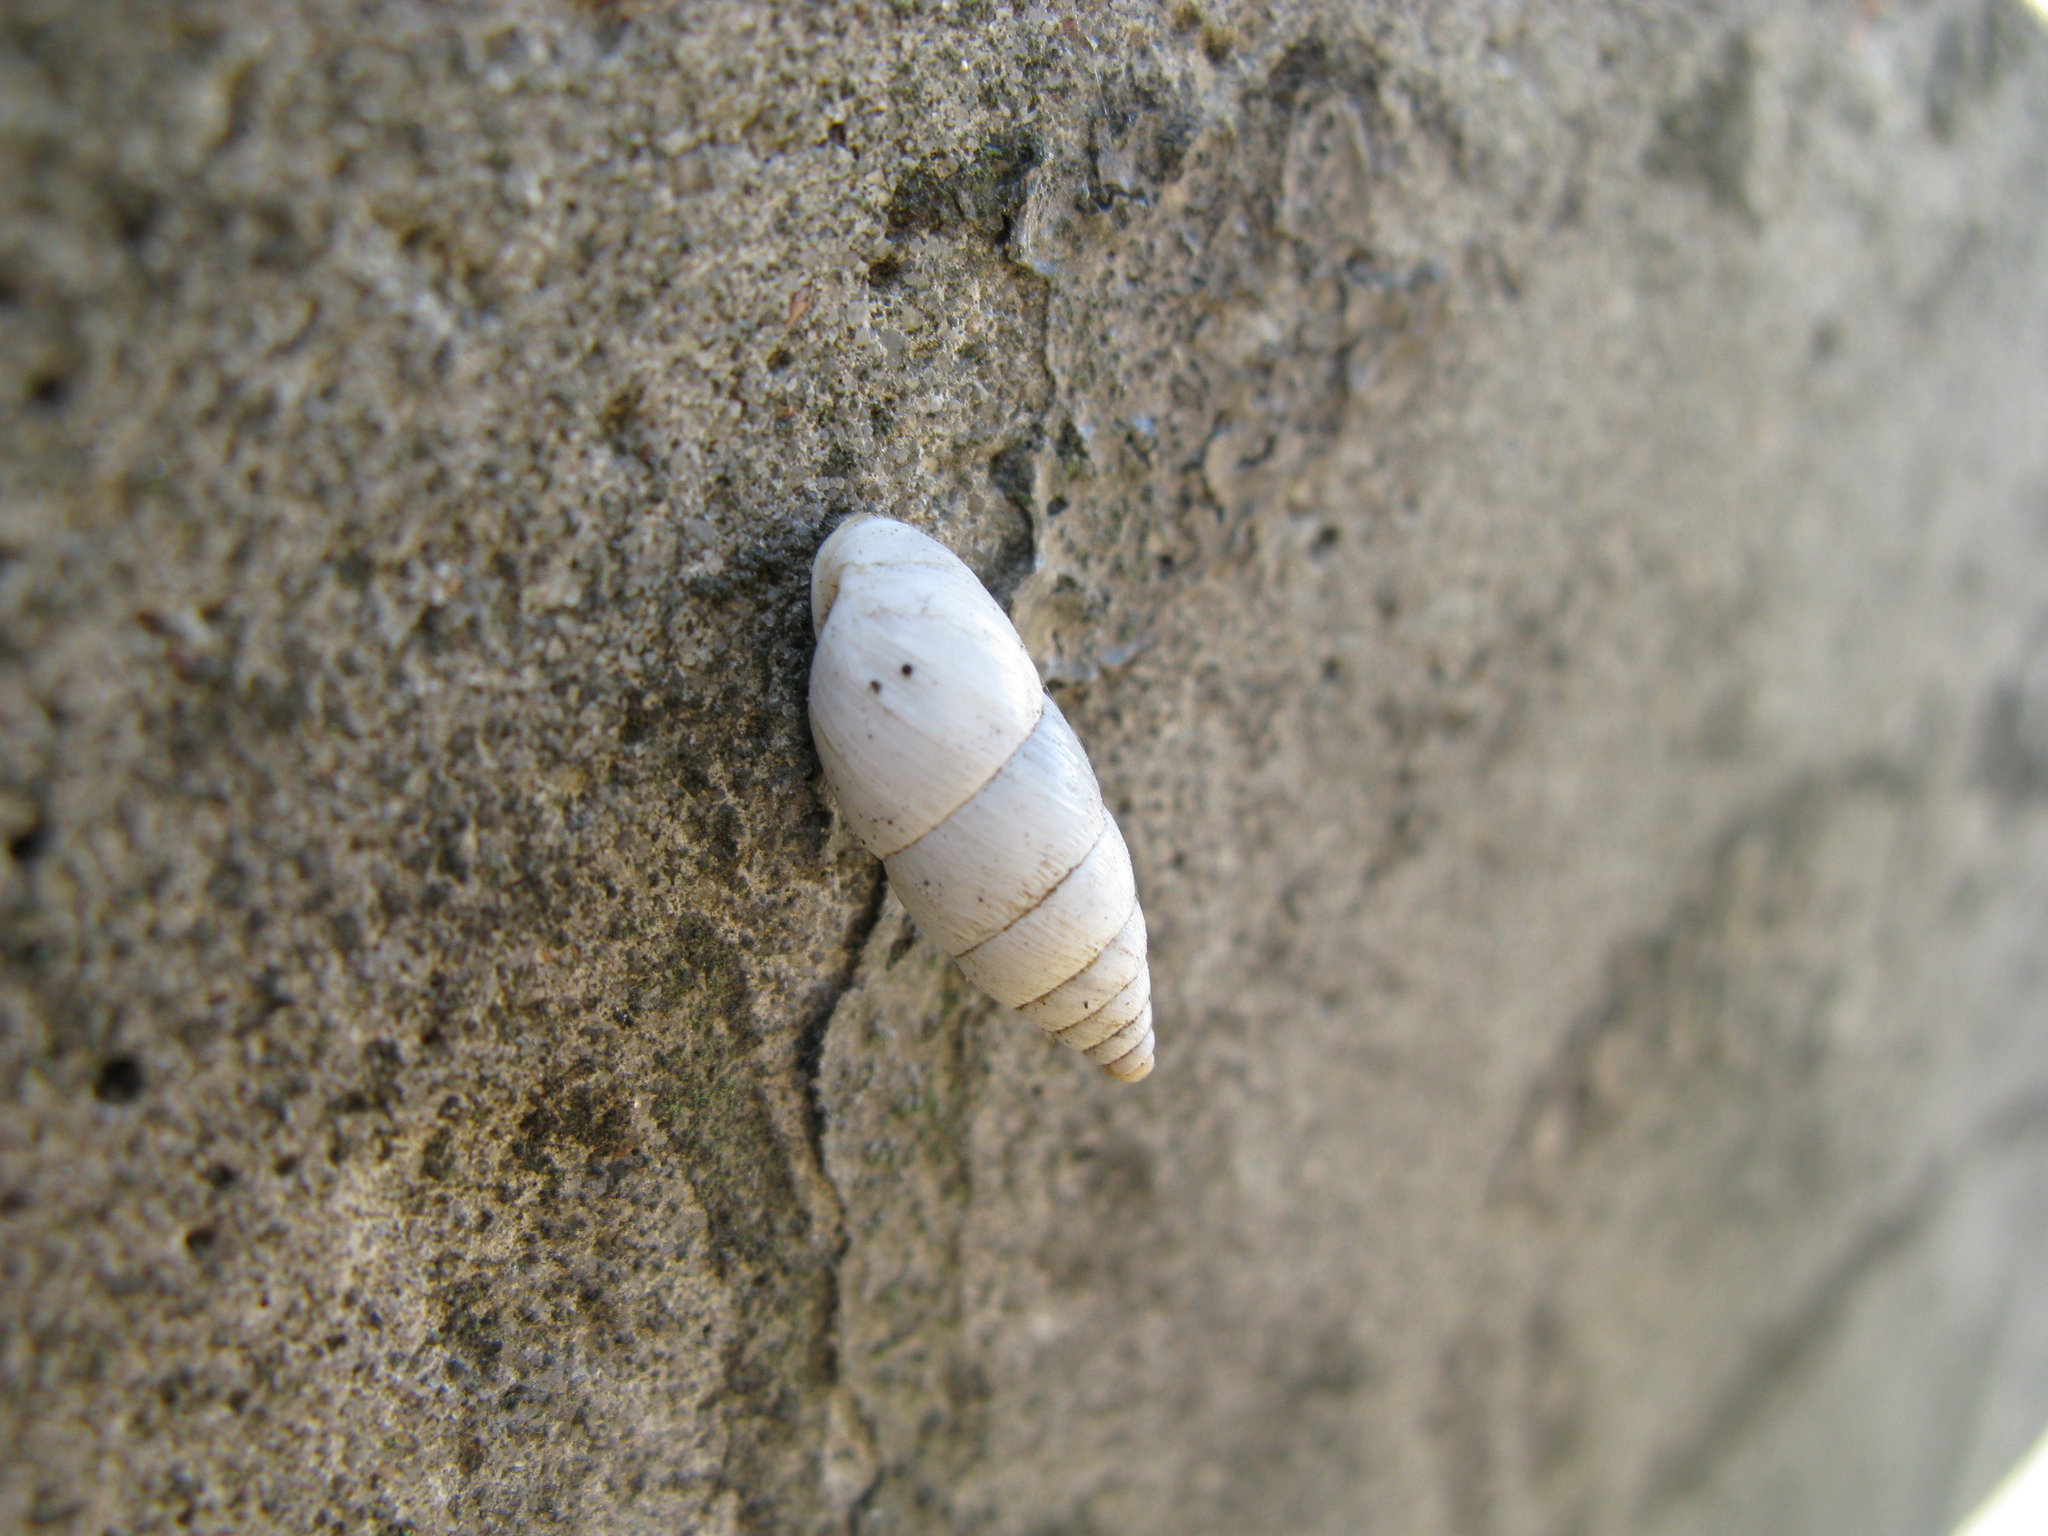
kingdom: Animalia
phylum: Mollusca
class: Gastropoda
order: Stylommatophora
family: Enidae
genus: Brephulopsis
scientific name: Brephulopsis cylindrica
